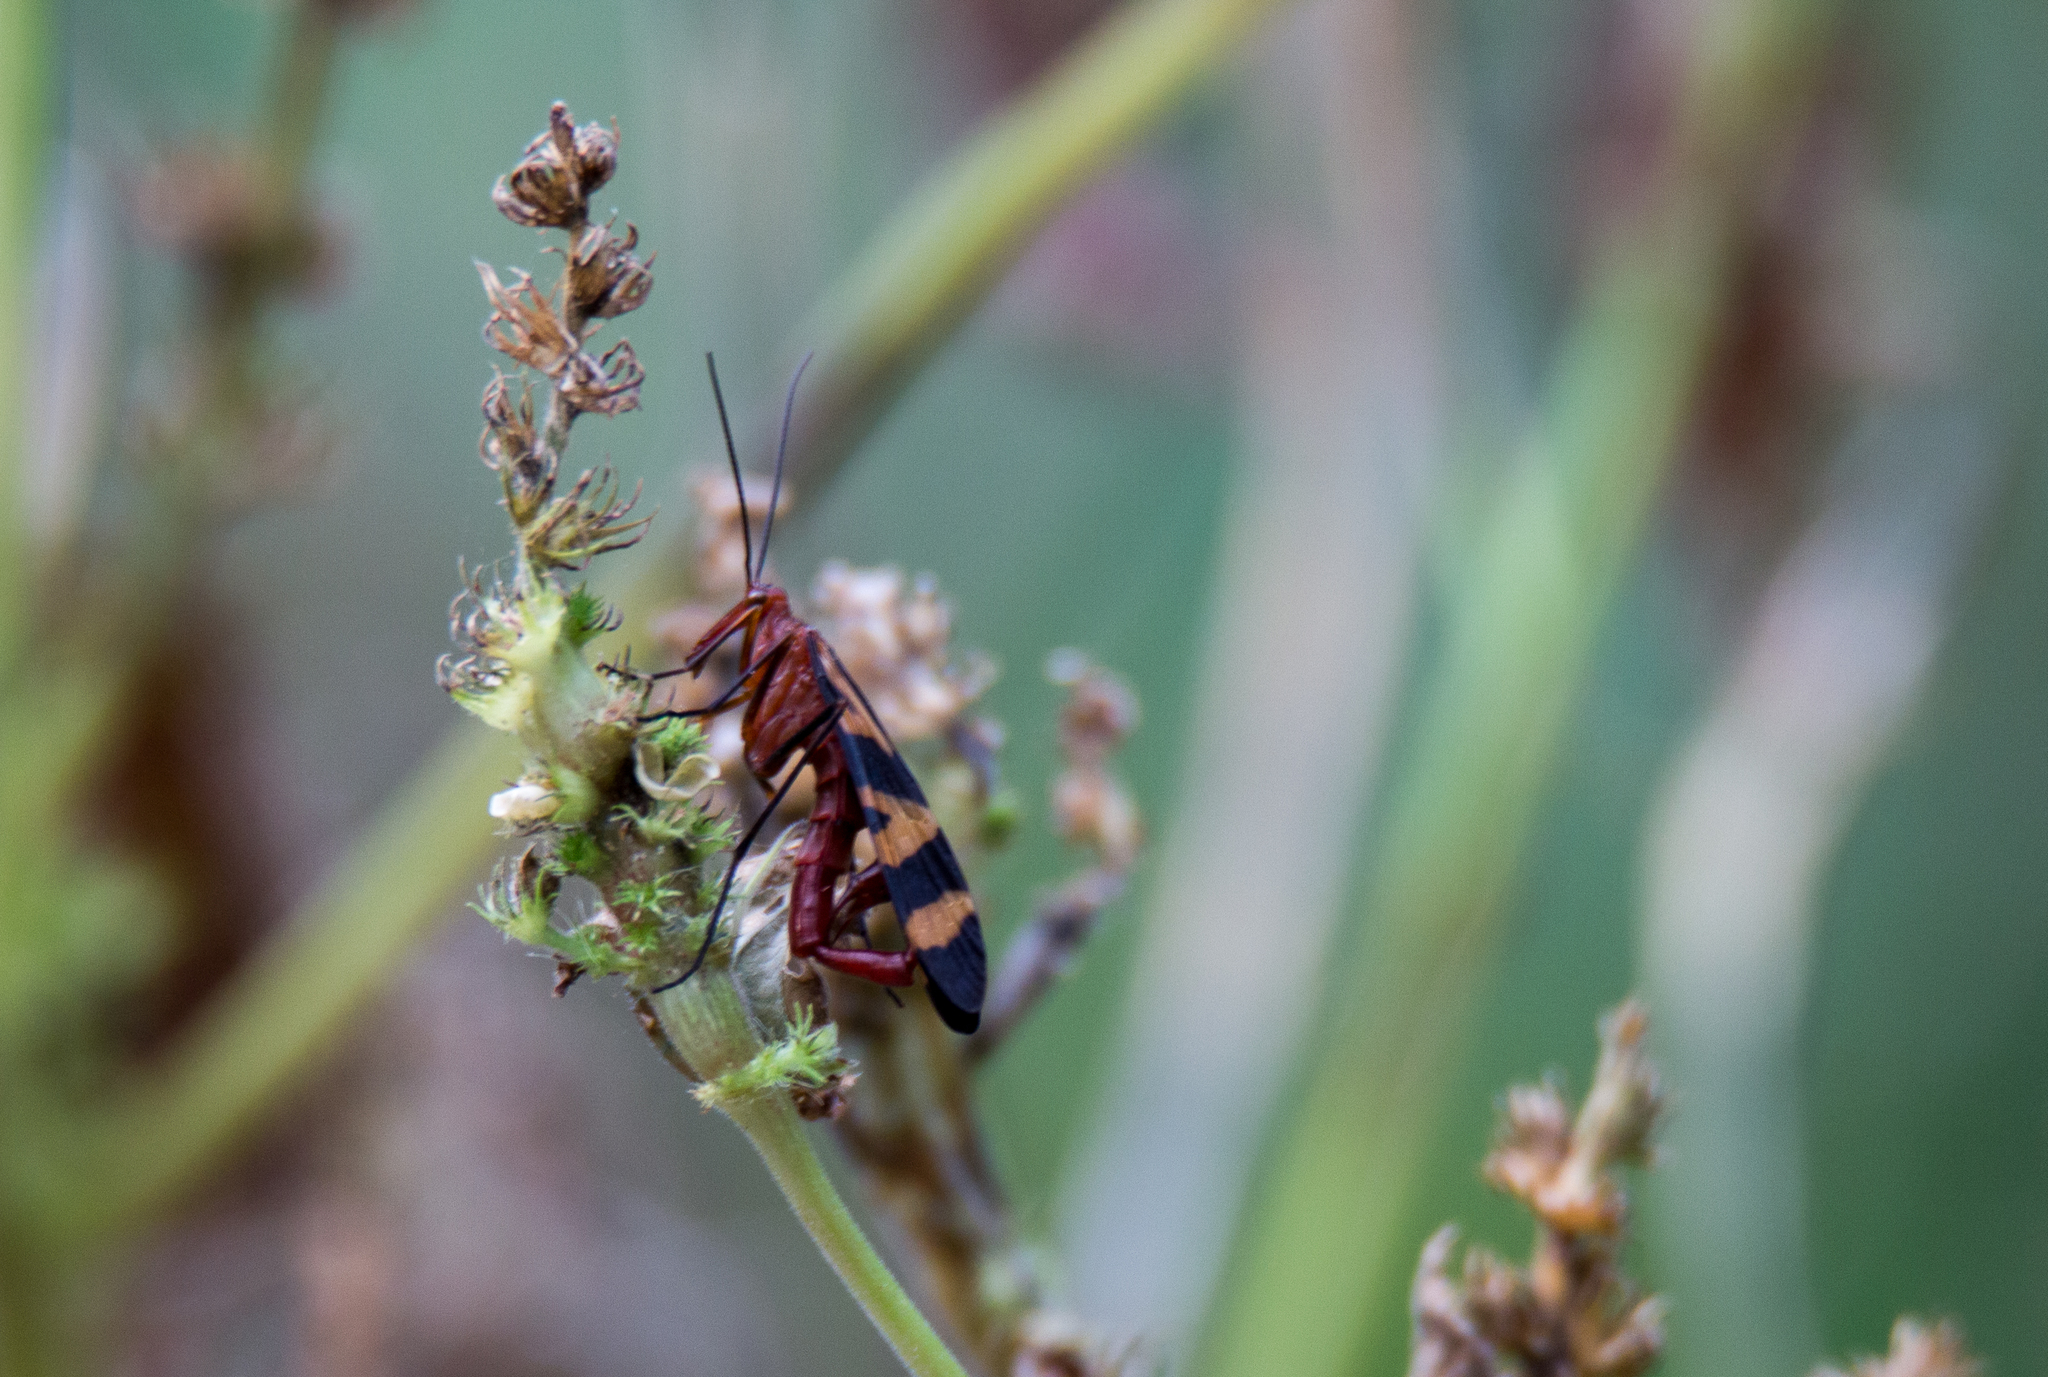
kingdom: Animalia
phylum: Arthropoda
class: Insecta
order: Mecoptera
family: Panorpidae
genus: Panorpa
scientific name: Panorpa nuptialis
